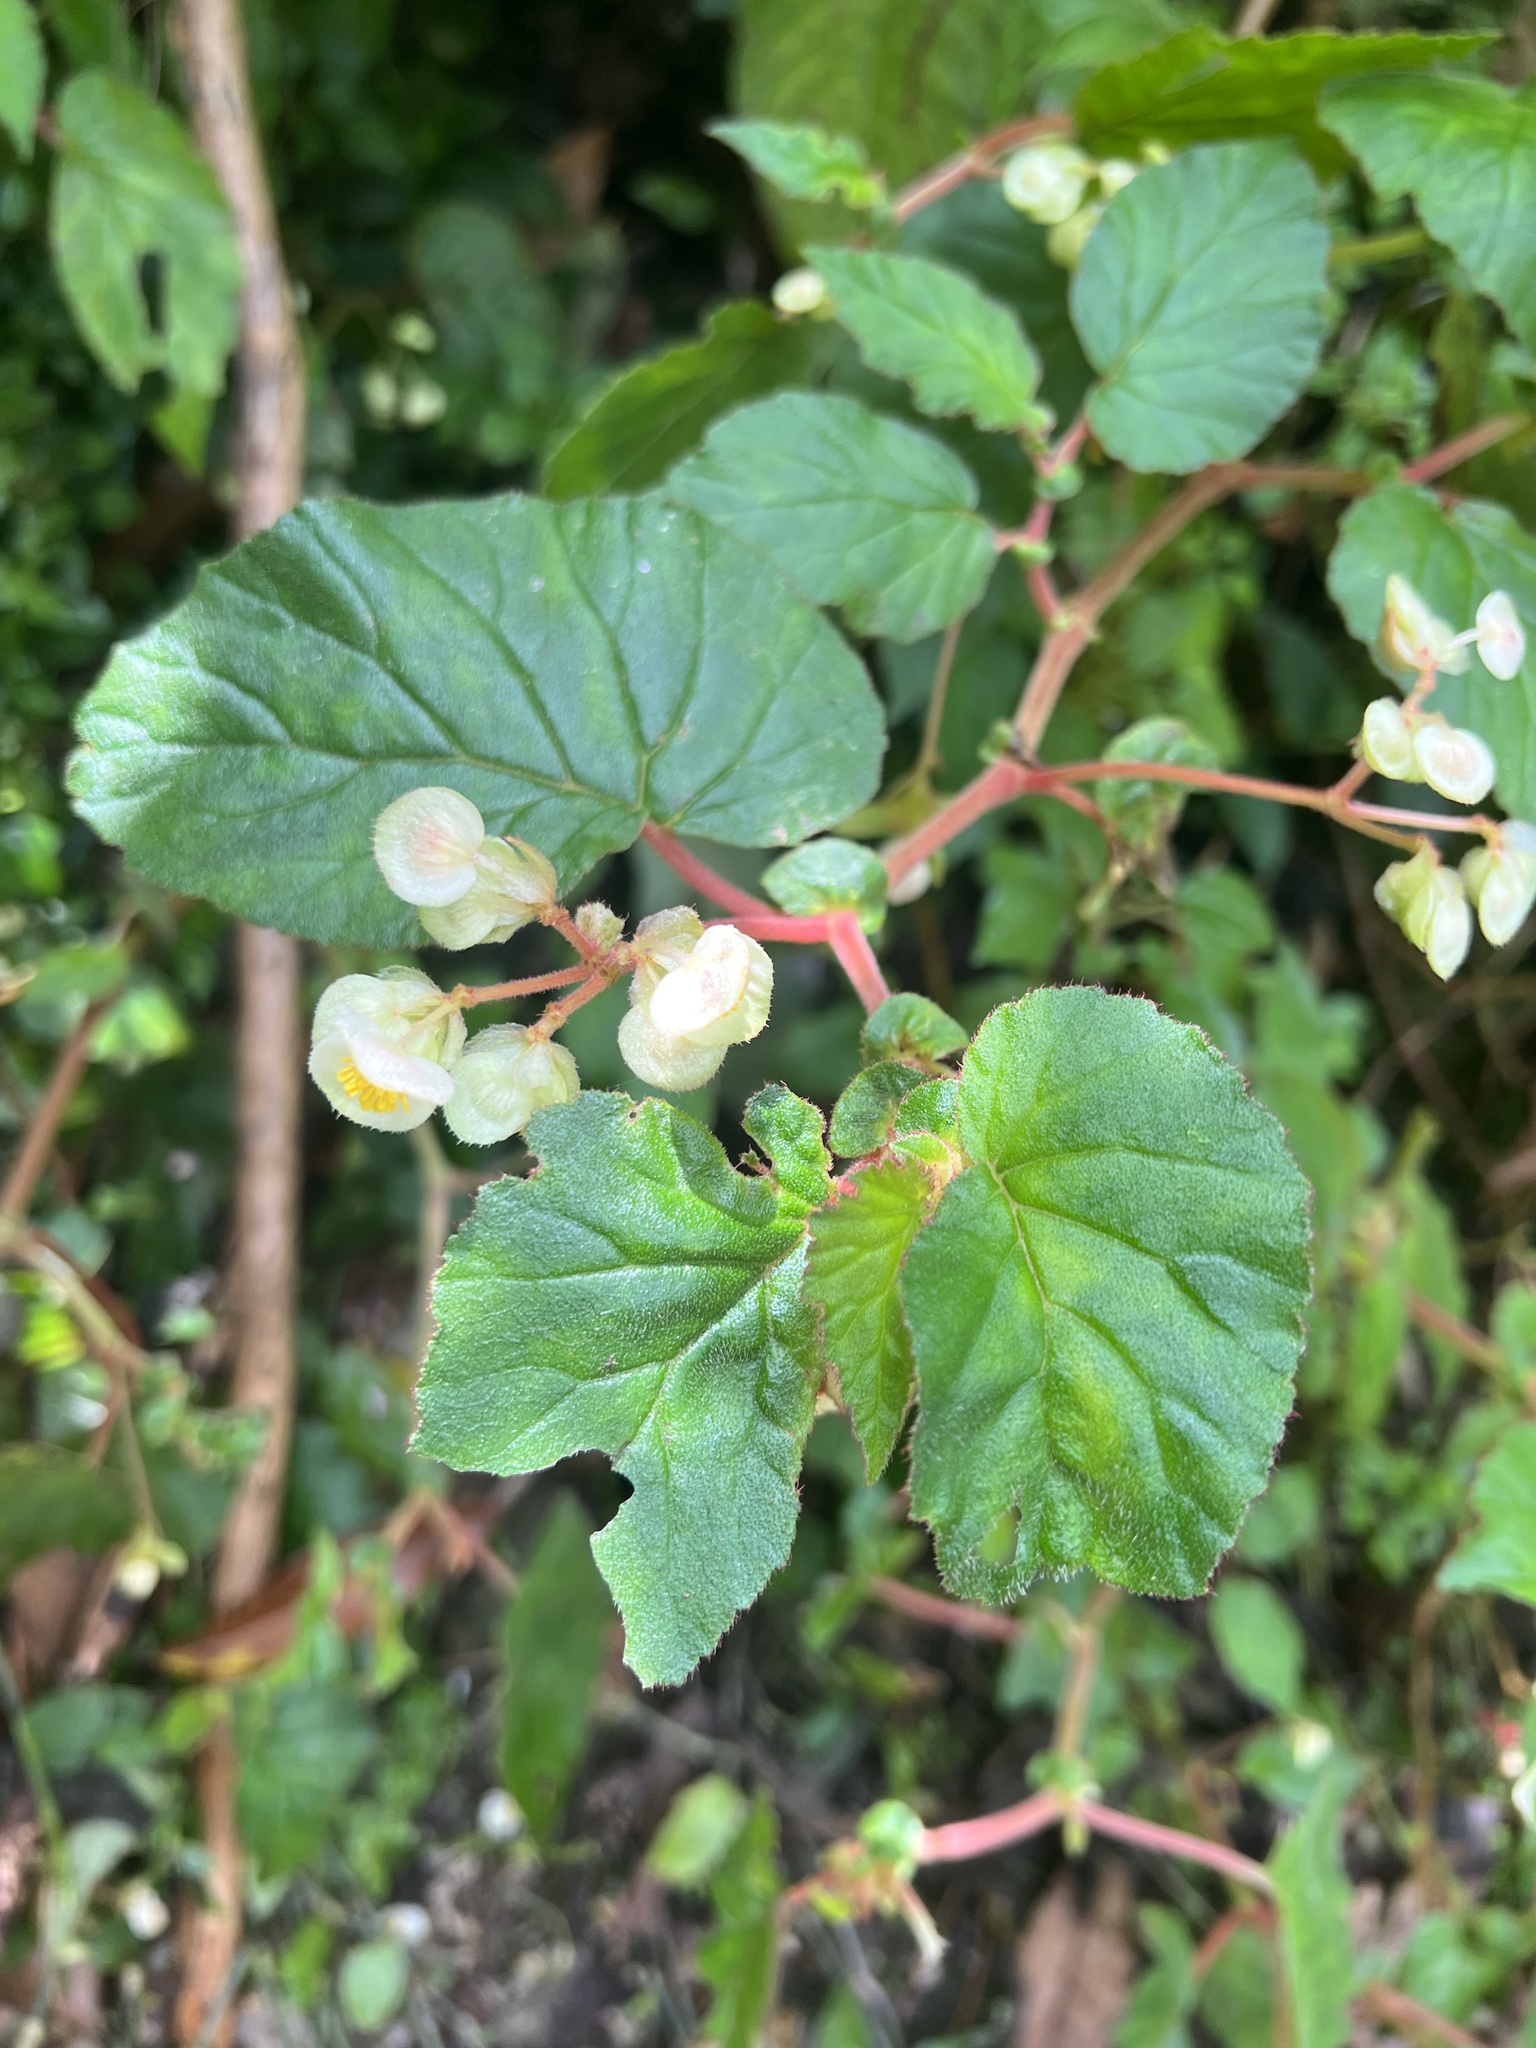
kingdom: Plantae
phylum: Tracheophyta
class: Magnoliopsida
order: Cucurbitales
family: Begoniaceae
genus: Begonia
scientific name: Begonia trianae
